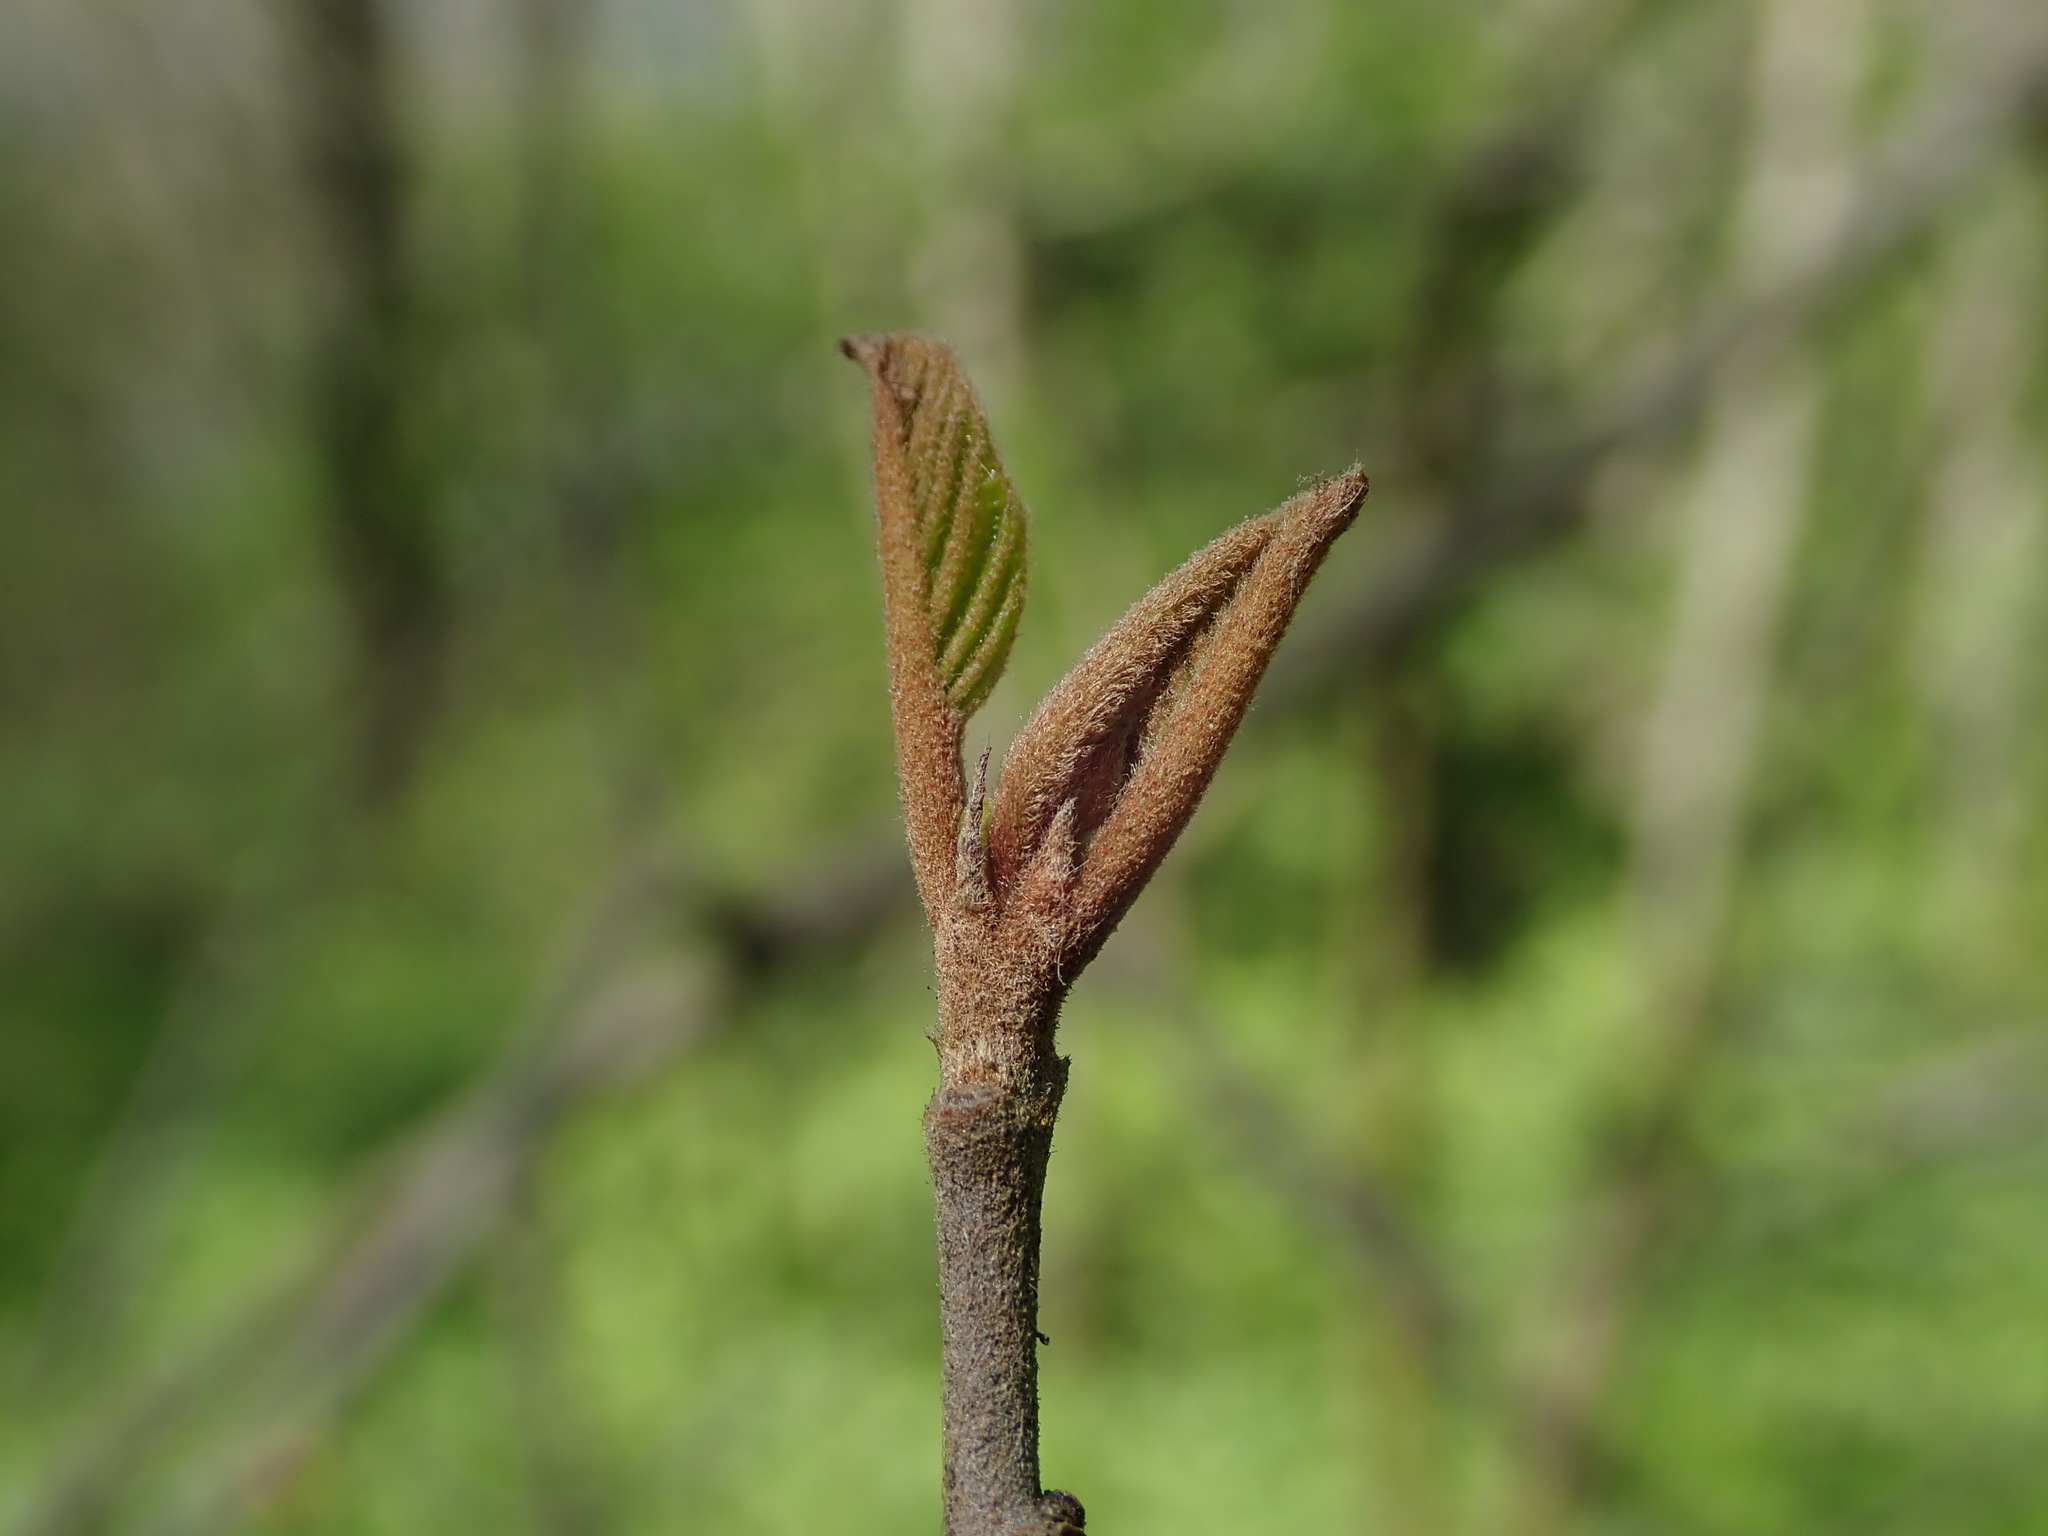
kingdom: Plantae
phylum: Tracheophyta
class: Magnoliopsida
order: Dipsacales
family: Viburnaceae
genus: Viburnum
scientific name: Viburnum lantana
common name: Wayfaring tree
